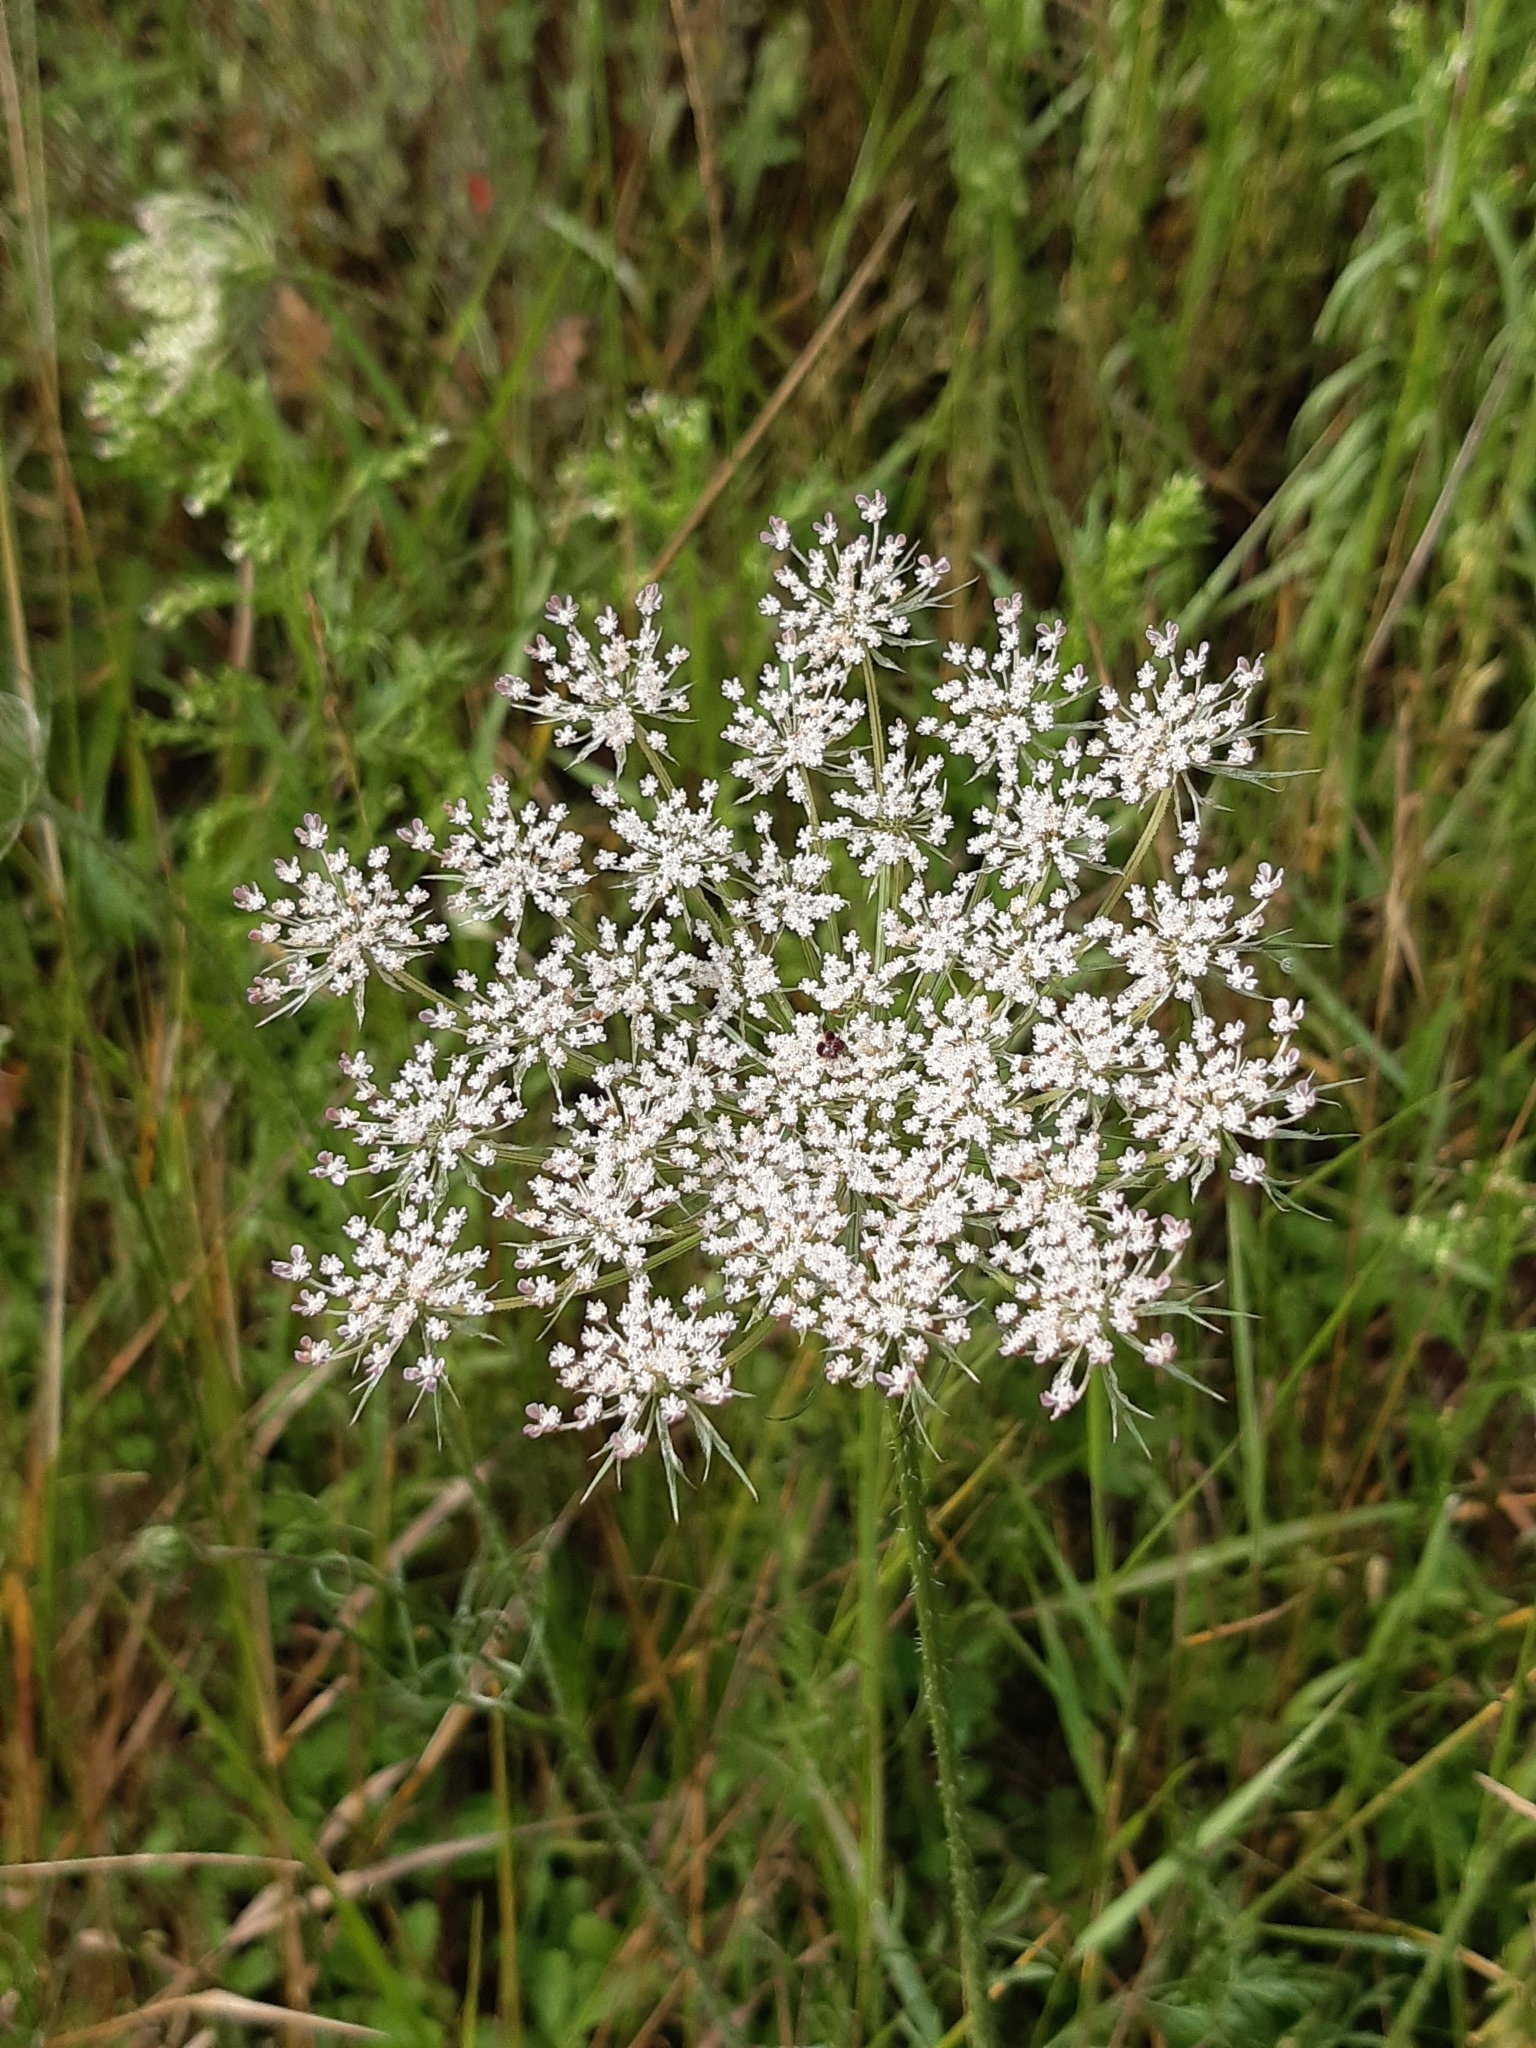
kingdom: Plantae
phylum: Tracheophyta
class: Magnoliopsida
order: Apiales
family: Apiaceae
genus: Daucus
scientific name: Daucus carota
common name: Wild carrot
